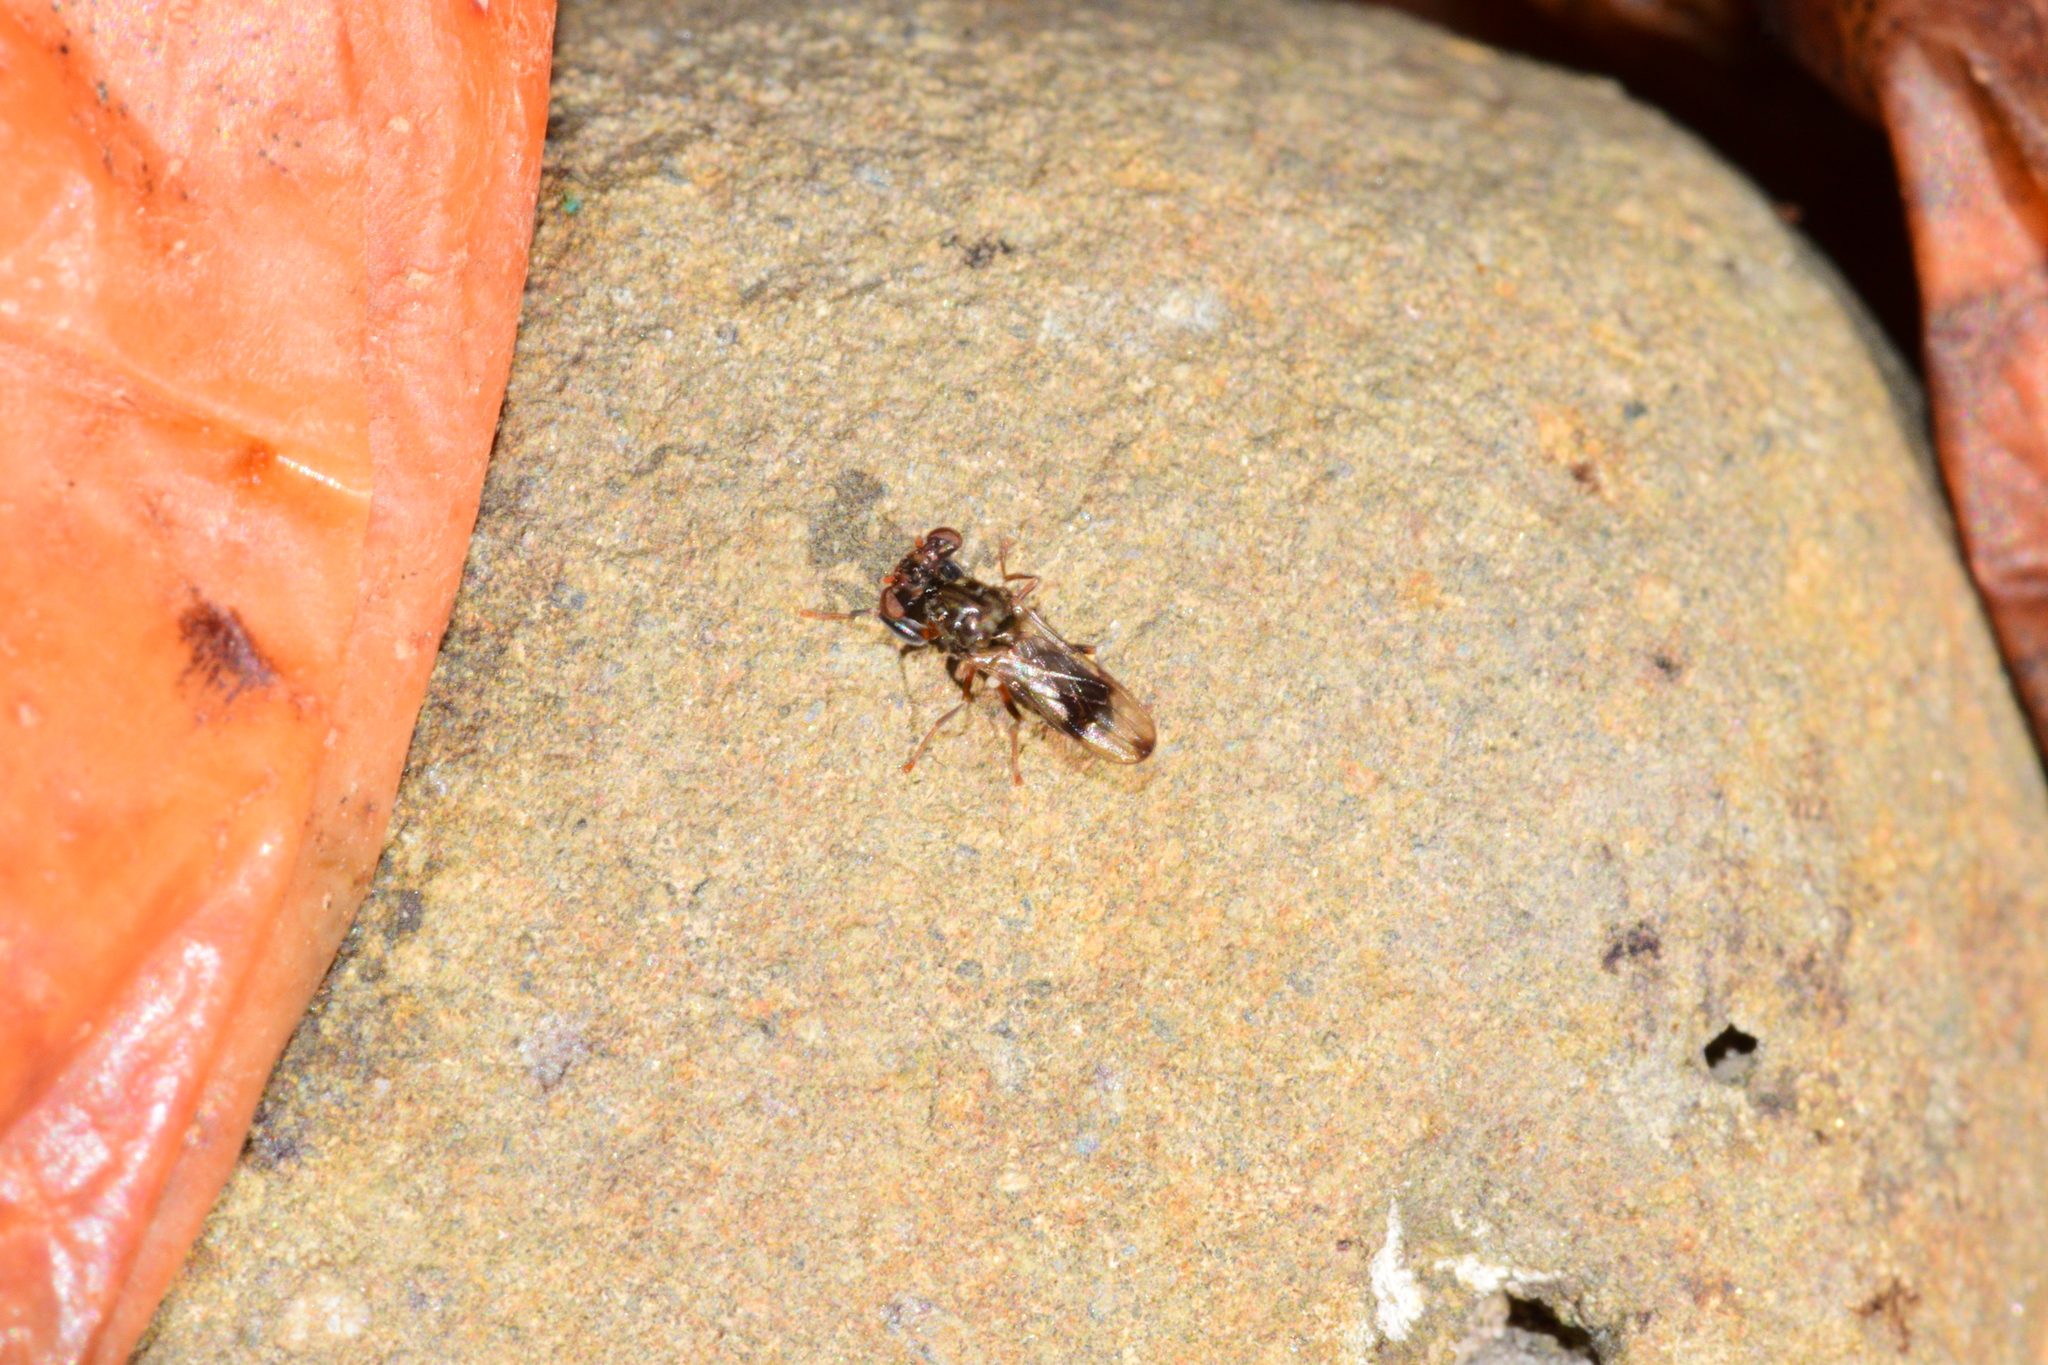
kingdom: Animalia
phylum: Arthropoda
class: Insecta
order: Diptera
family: Diopsidae
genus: Sphyracephala
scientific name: Sphyracephala brevicornis
